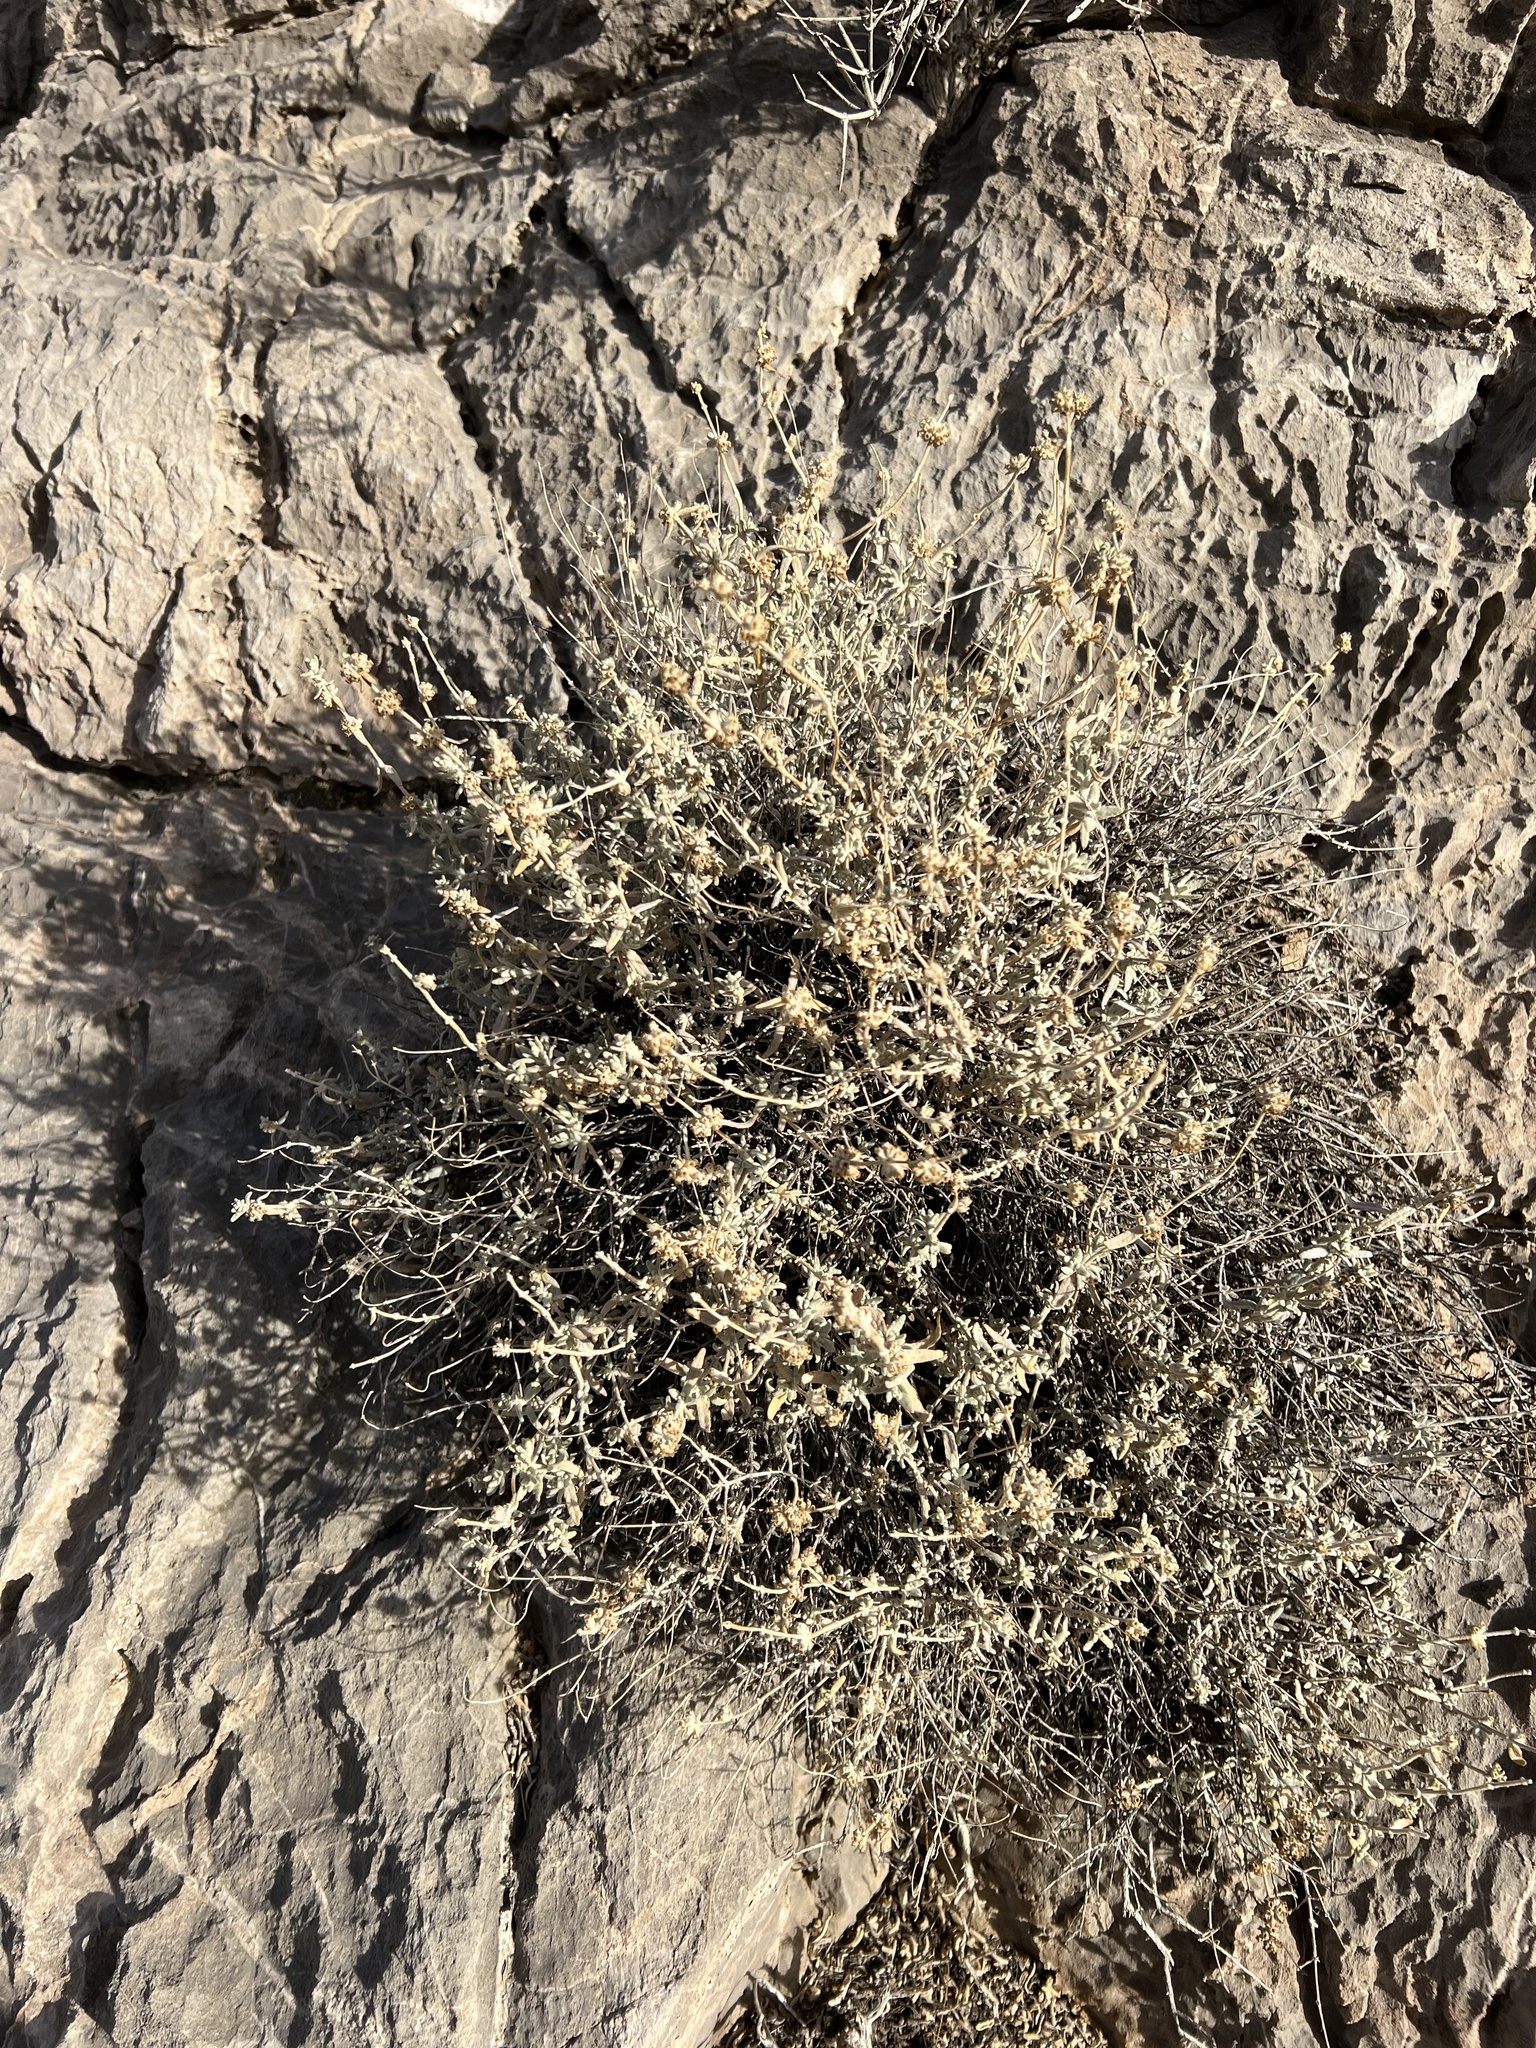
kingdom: Plantae
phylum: Tracheophyta
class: Magnoliopsida
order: Lamiales
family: Scrophulariaceae
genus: Buddleja
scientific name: Buddleja utahensis
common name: Utah butterfly-bush
